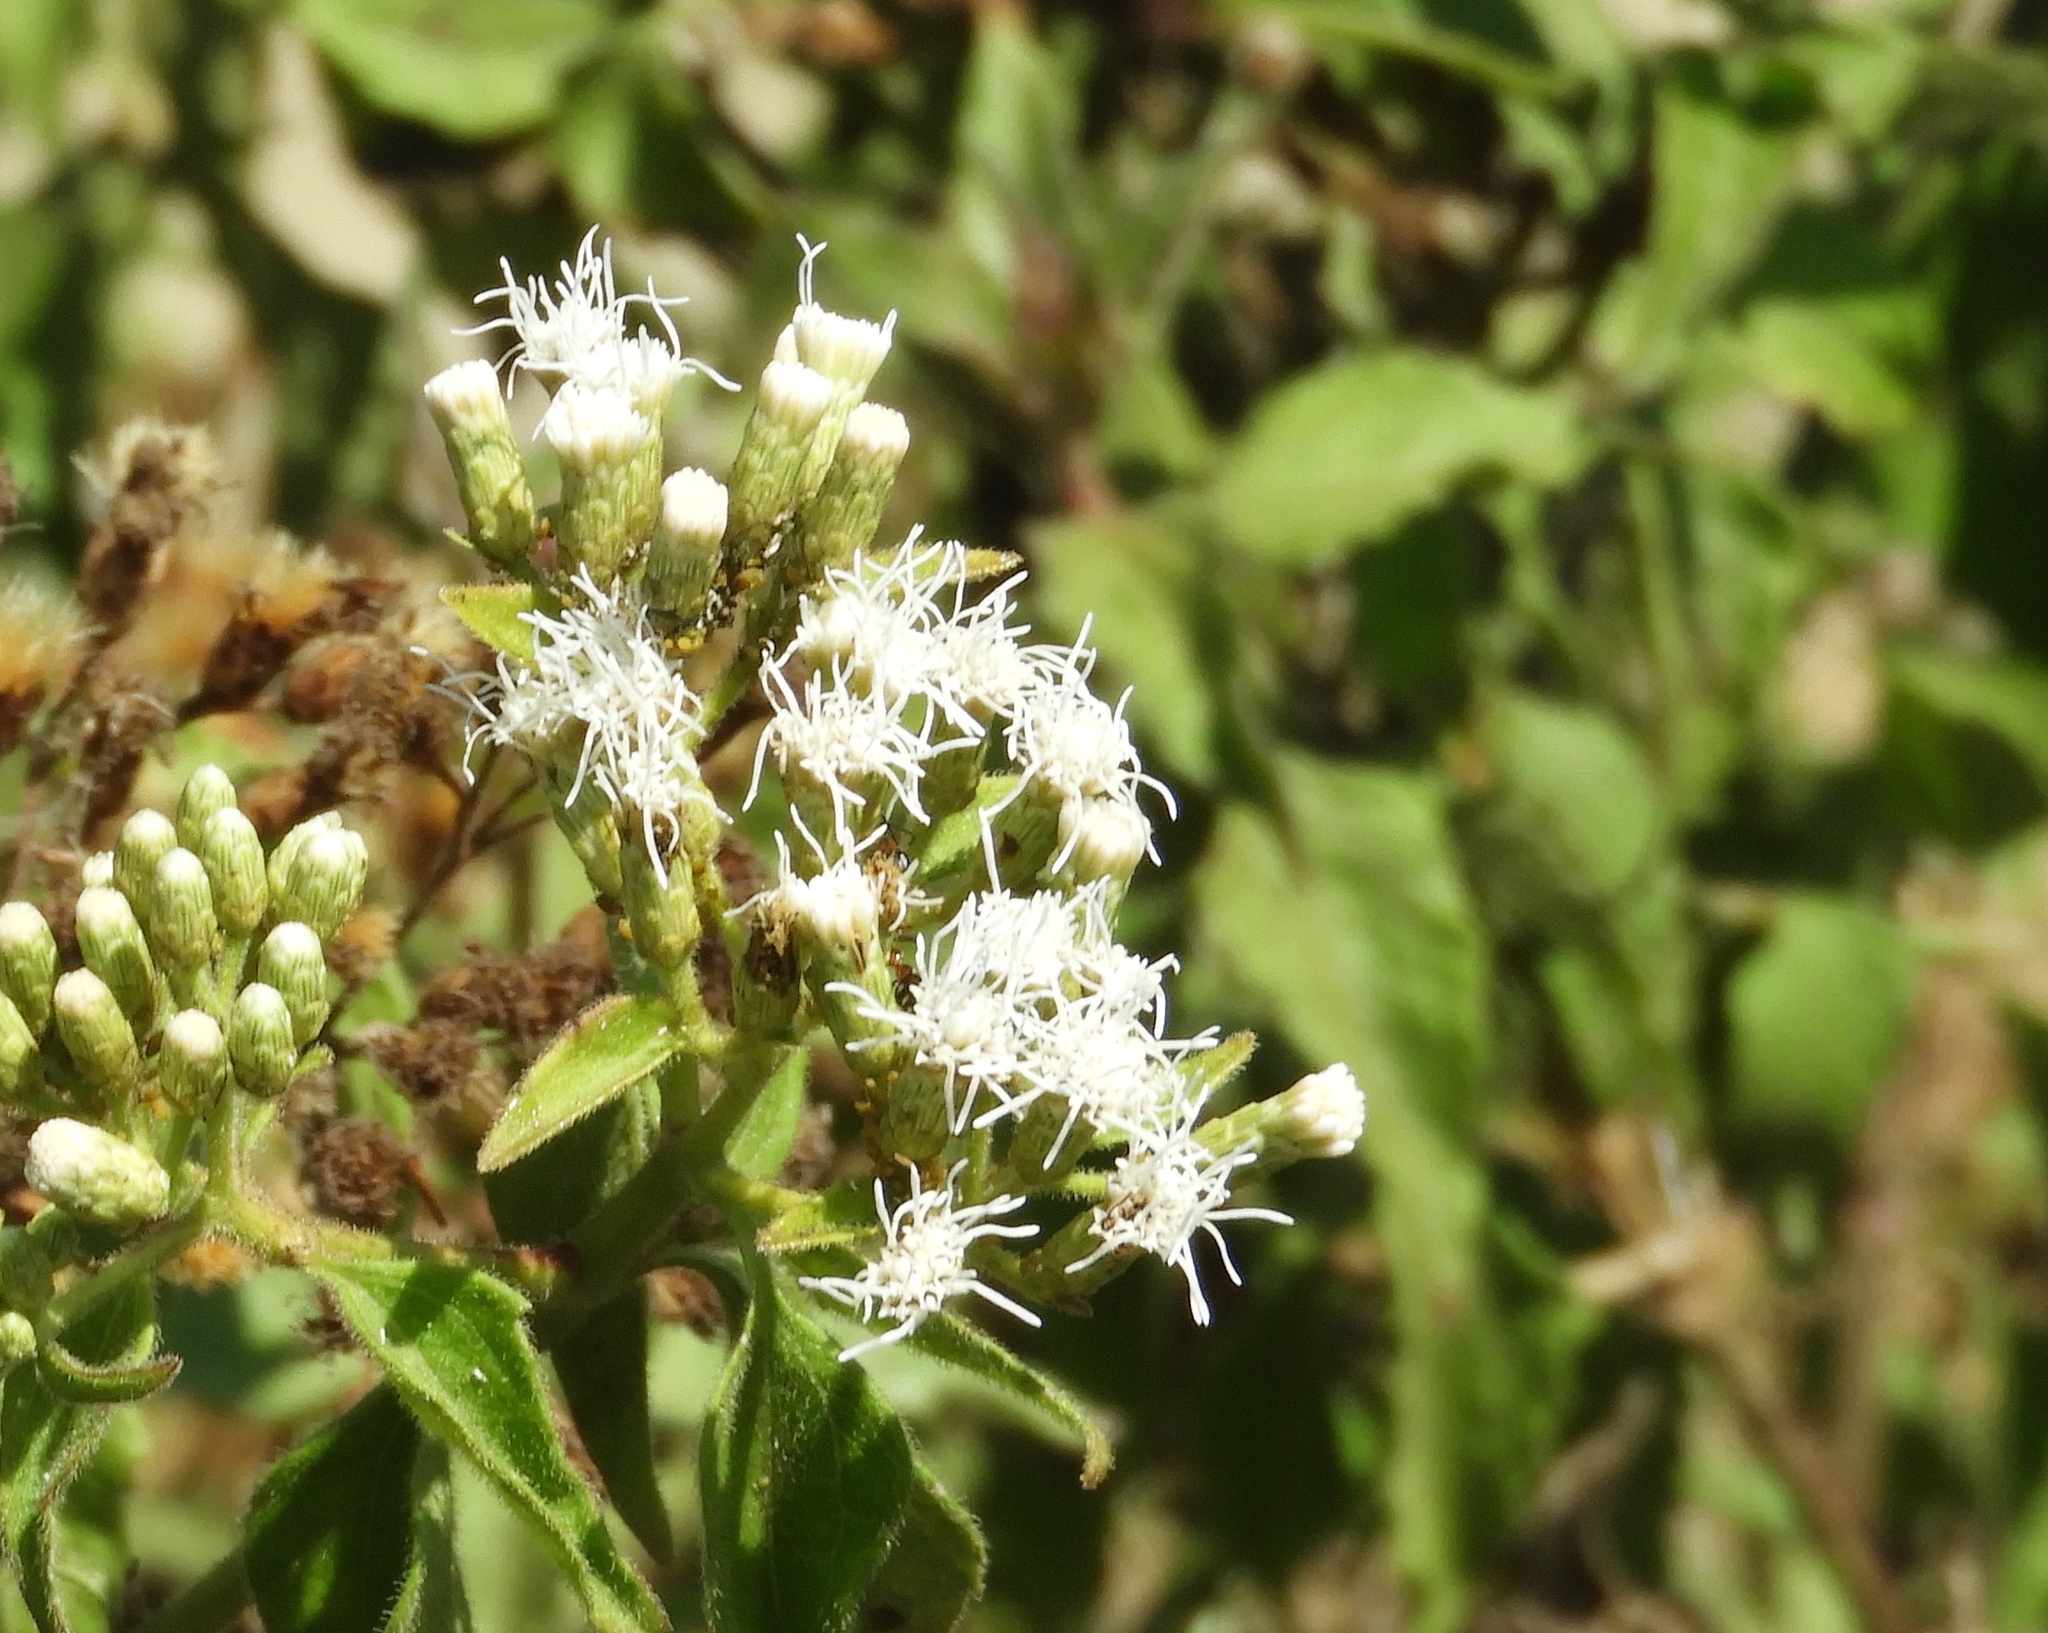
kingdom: Plantae
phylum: Tracheophyta
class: Magnoliopsida
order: Asterales
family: Asteraceae
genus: Chromolaena
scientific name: Chromolaena odorata
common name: Siamweed
